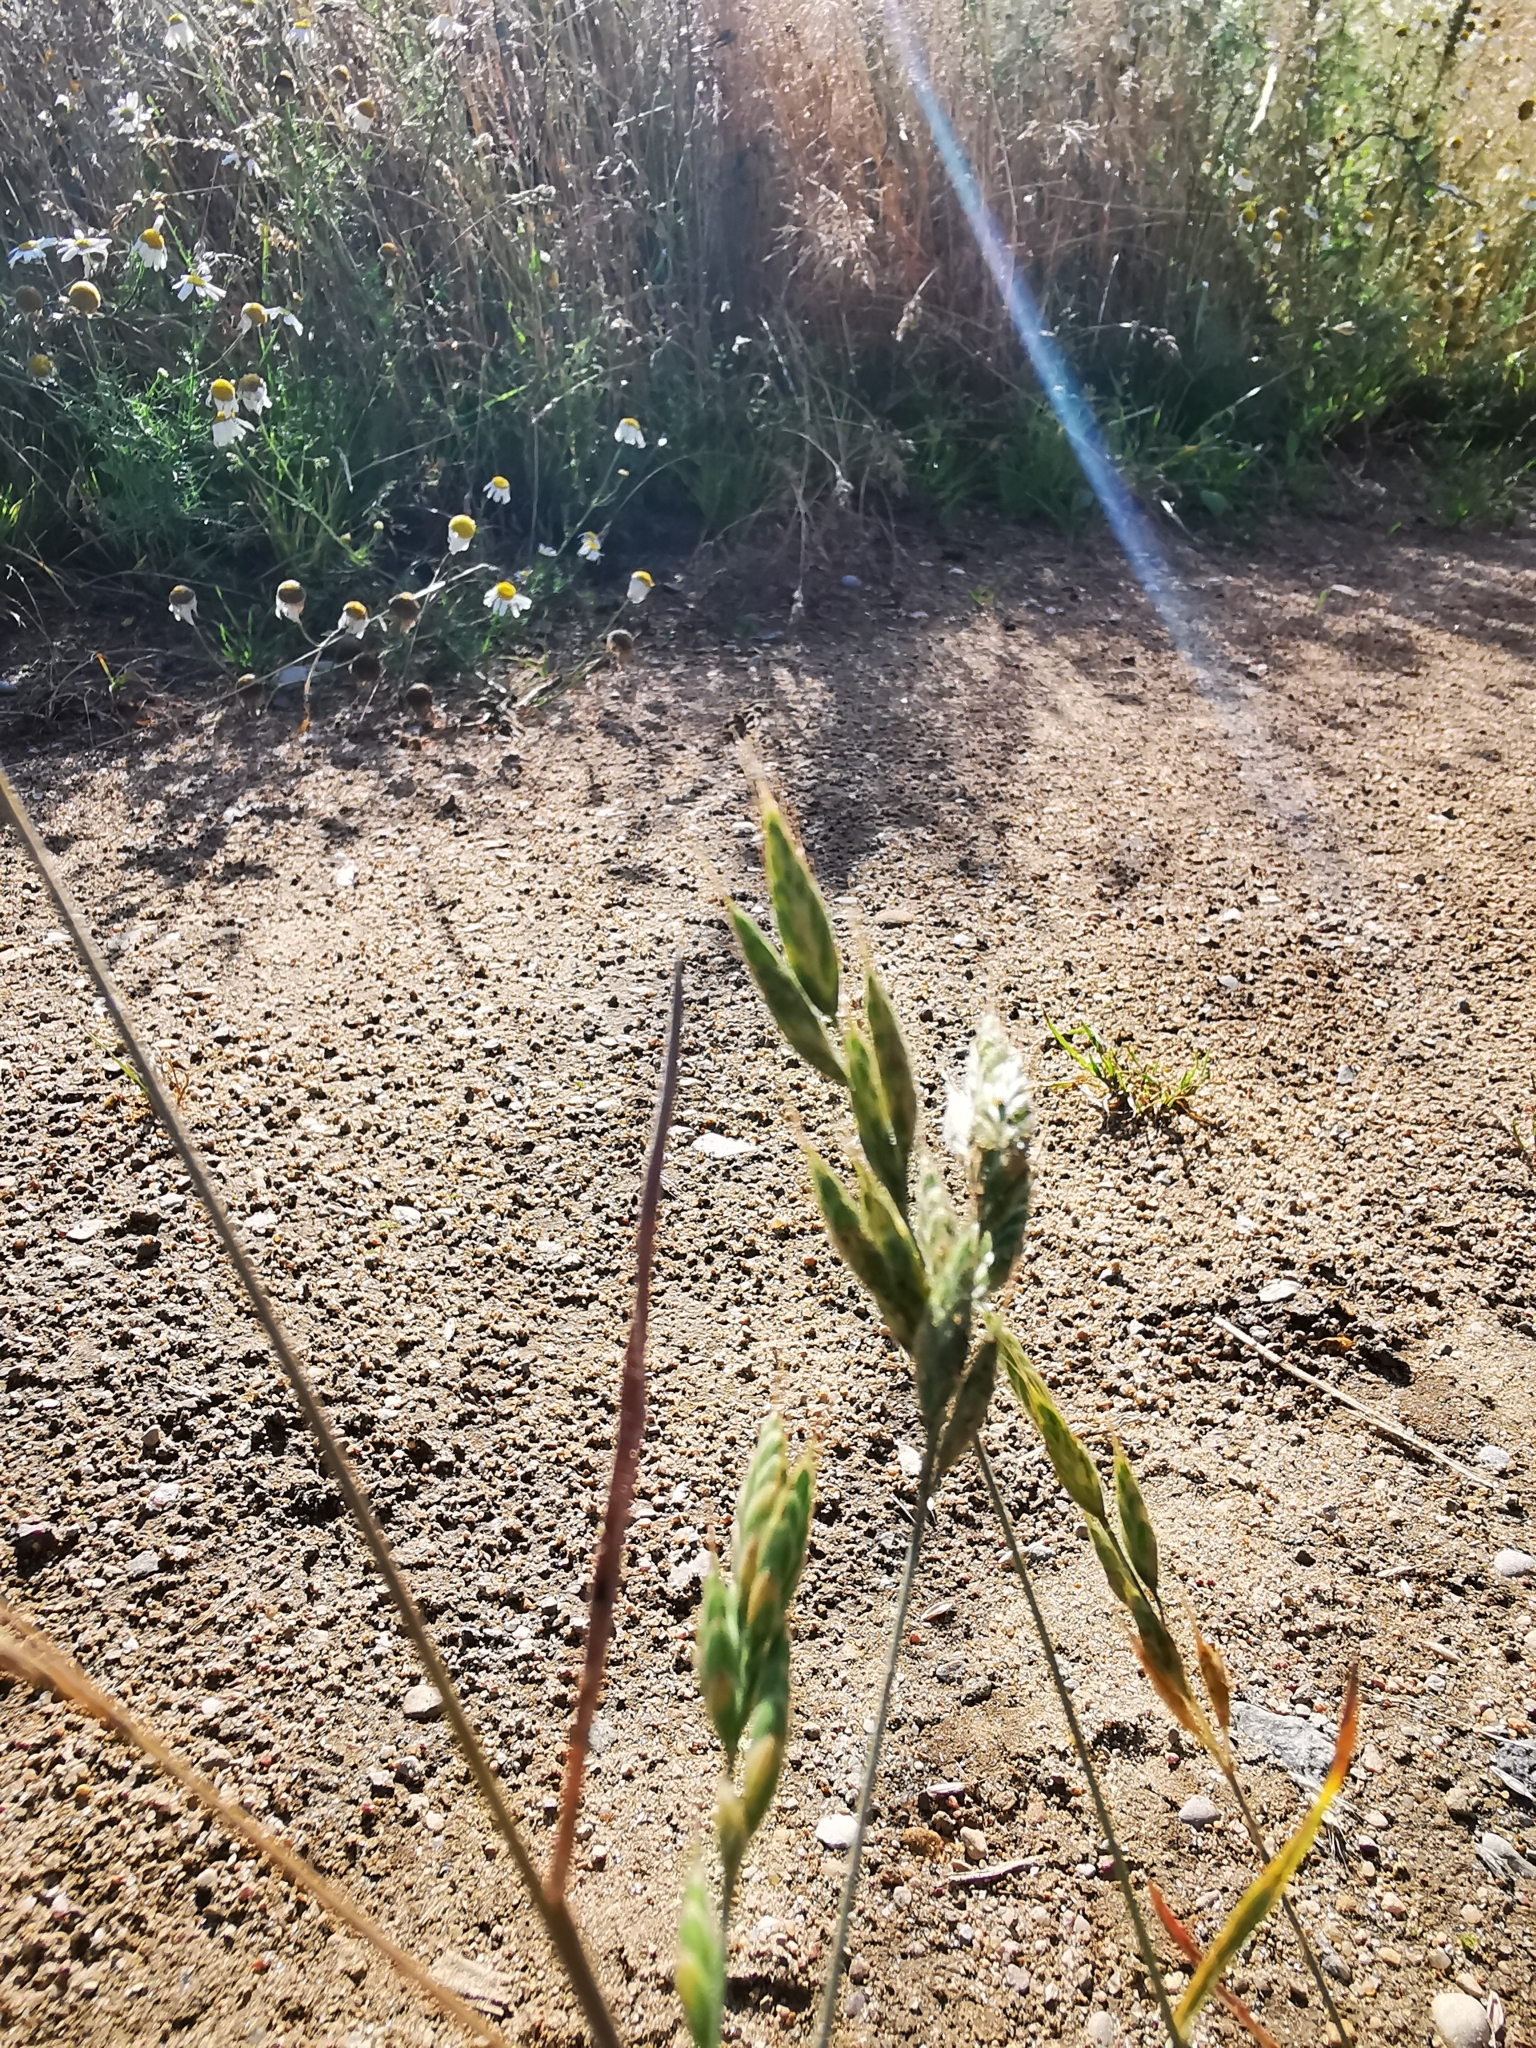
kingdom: Plantae
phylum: Tracheophyta
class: Liliopsida
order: Poales
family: Poaceae
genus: Bromus
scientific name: Bromus hordeaceus
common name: Soft brome
